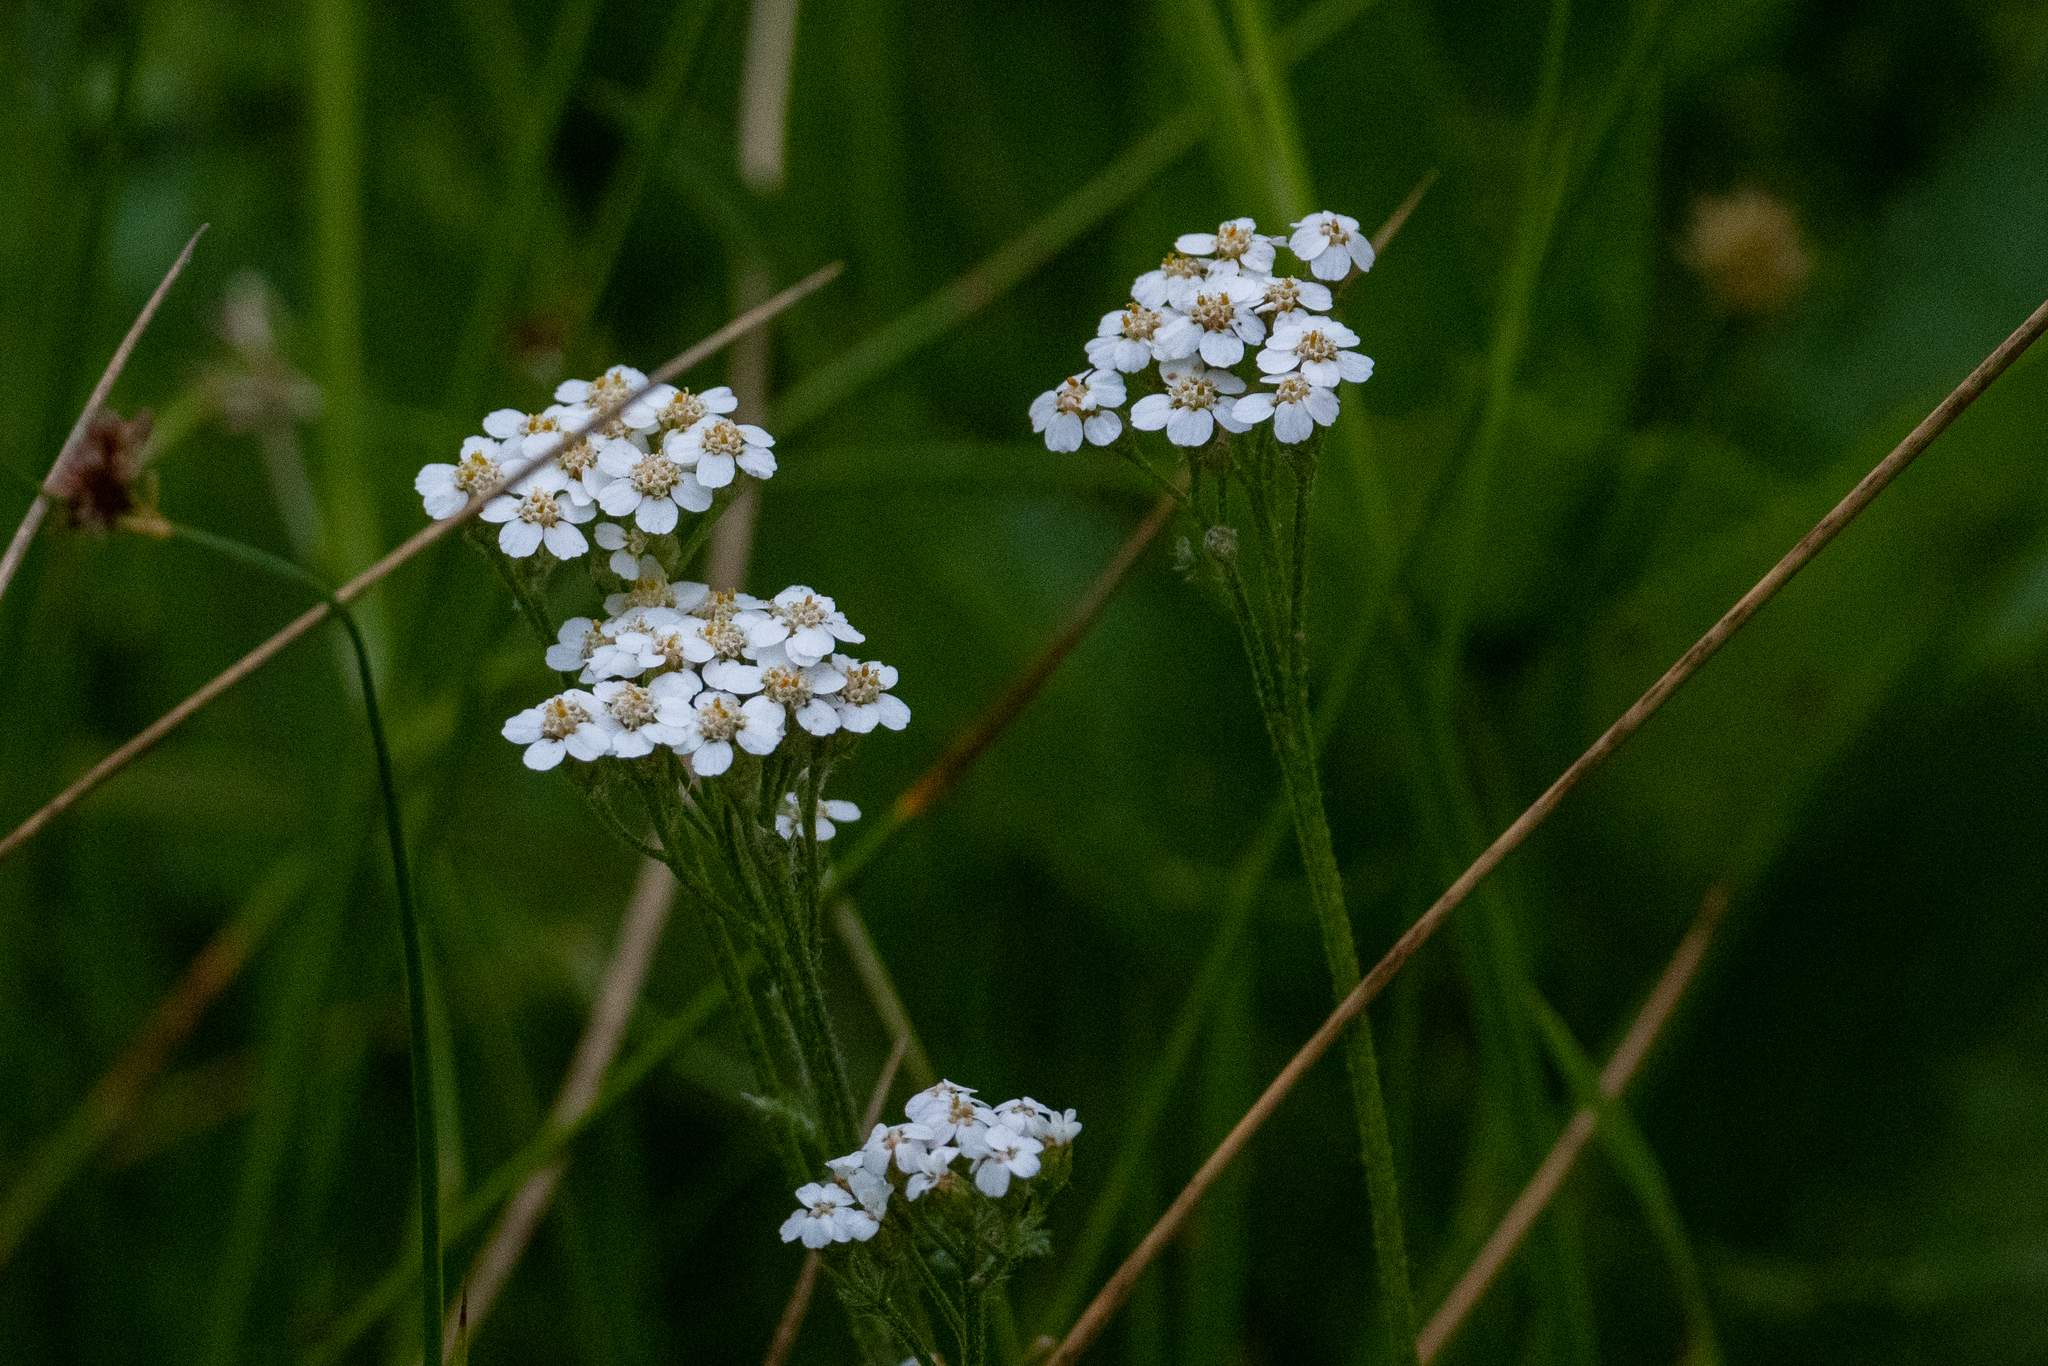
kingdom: Plantae
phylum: Tracheophyta
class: Magnoliopsida
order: Asterales
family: Asteraceae
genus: Achillea
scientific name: Achillea millefolium
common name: Yarrow
